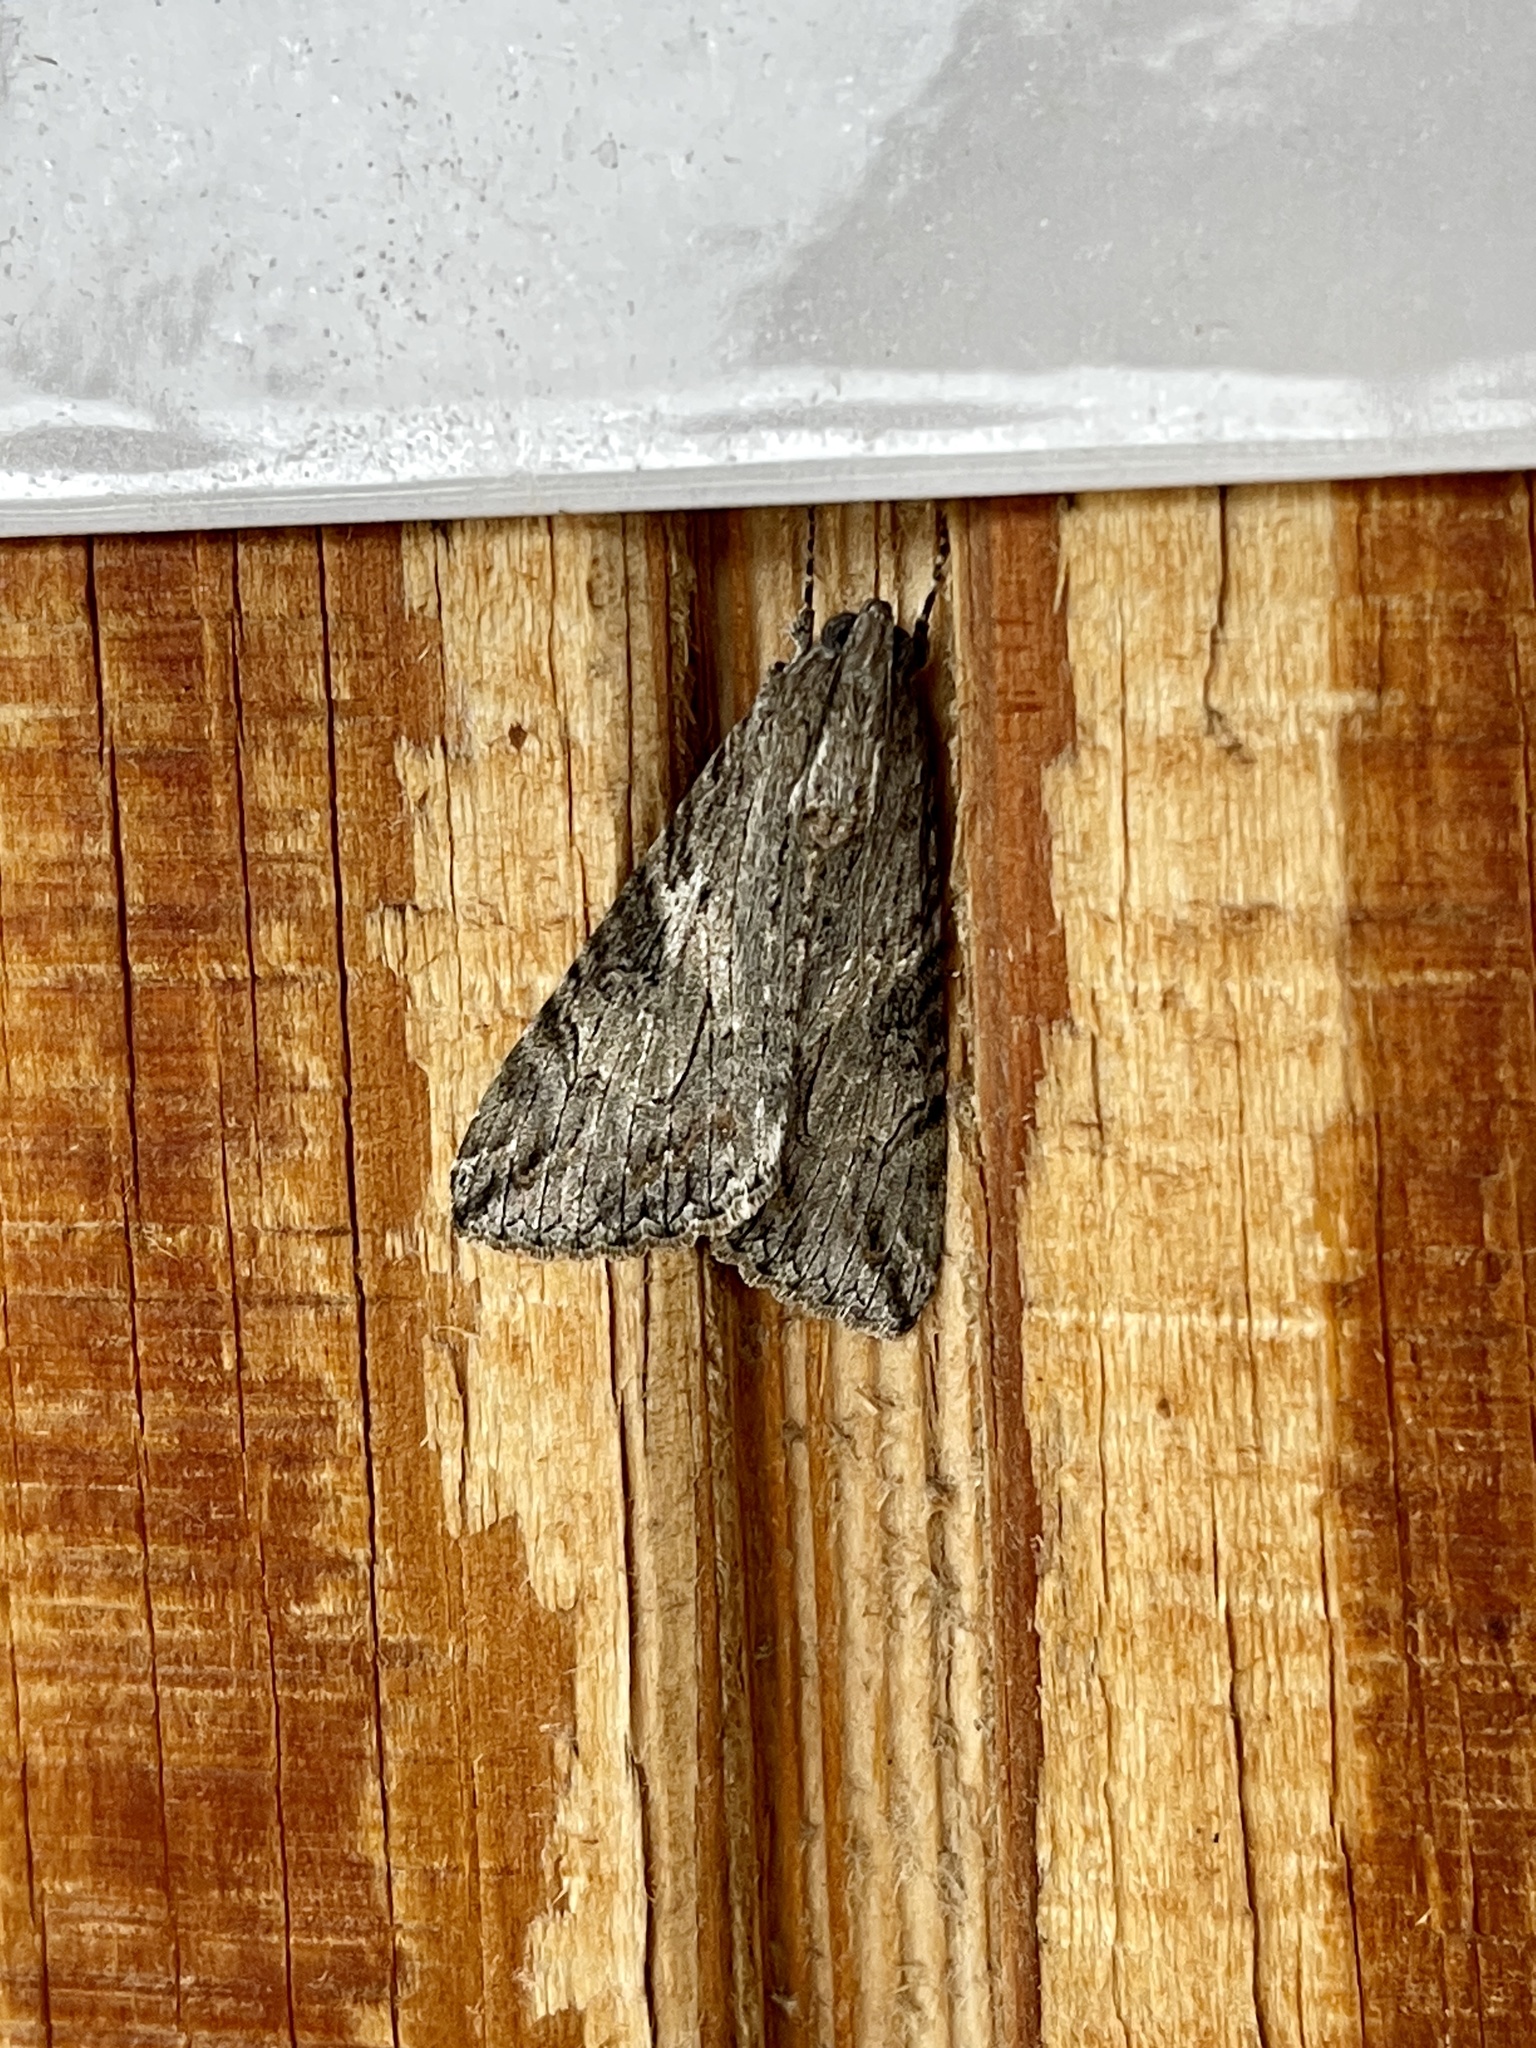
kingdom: Animalia
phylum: Arthropoda
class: Insecta
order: Lepidoptera
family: Erebidae
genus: Melipotis
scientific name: Melipotis jucunda
